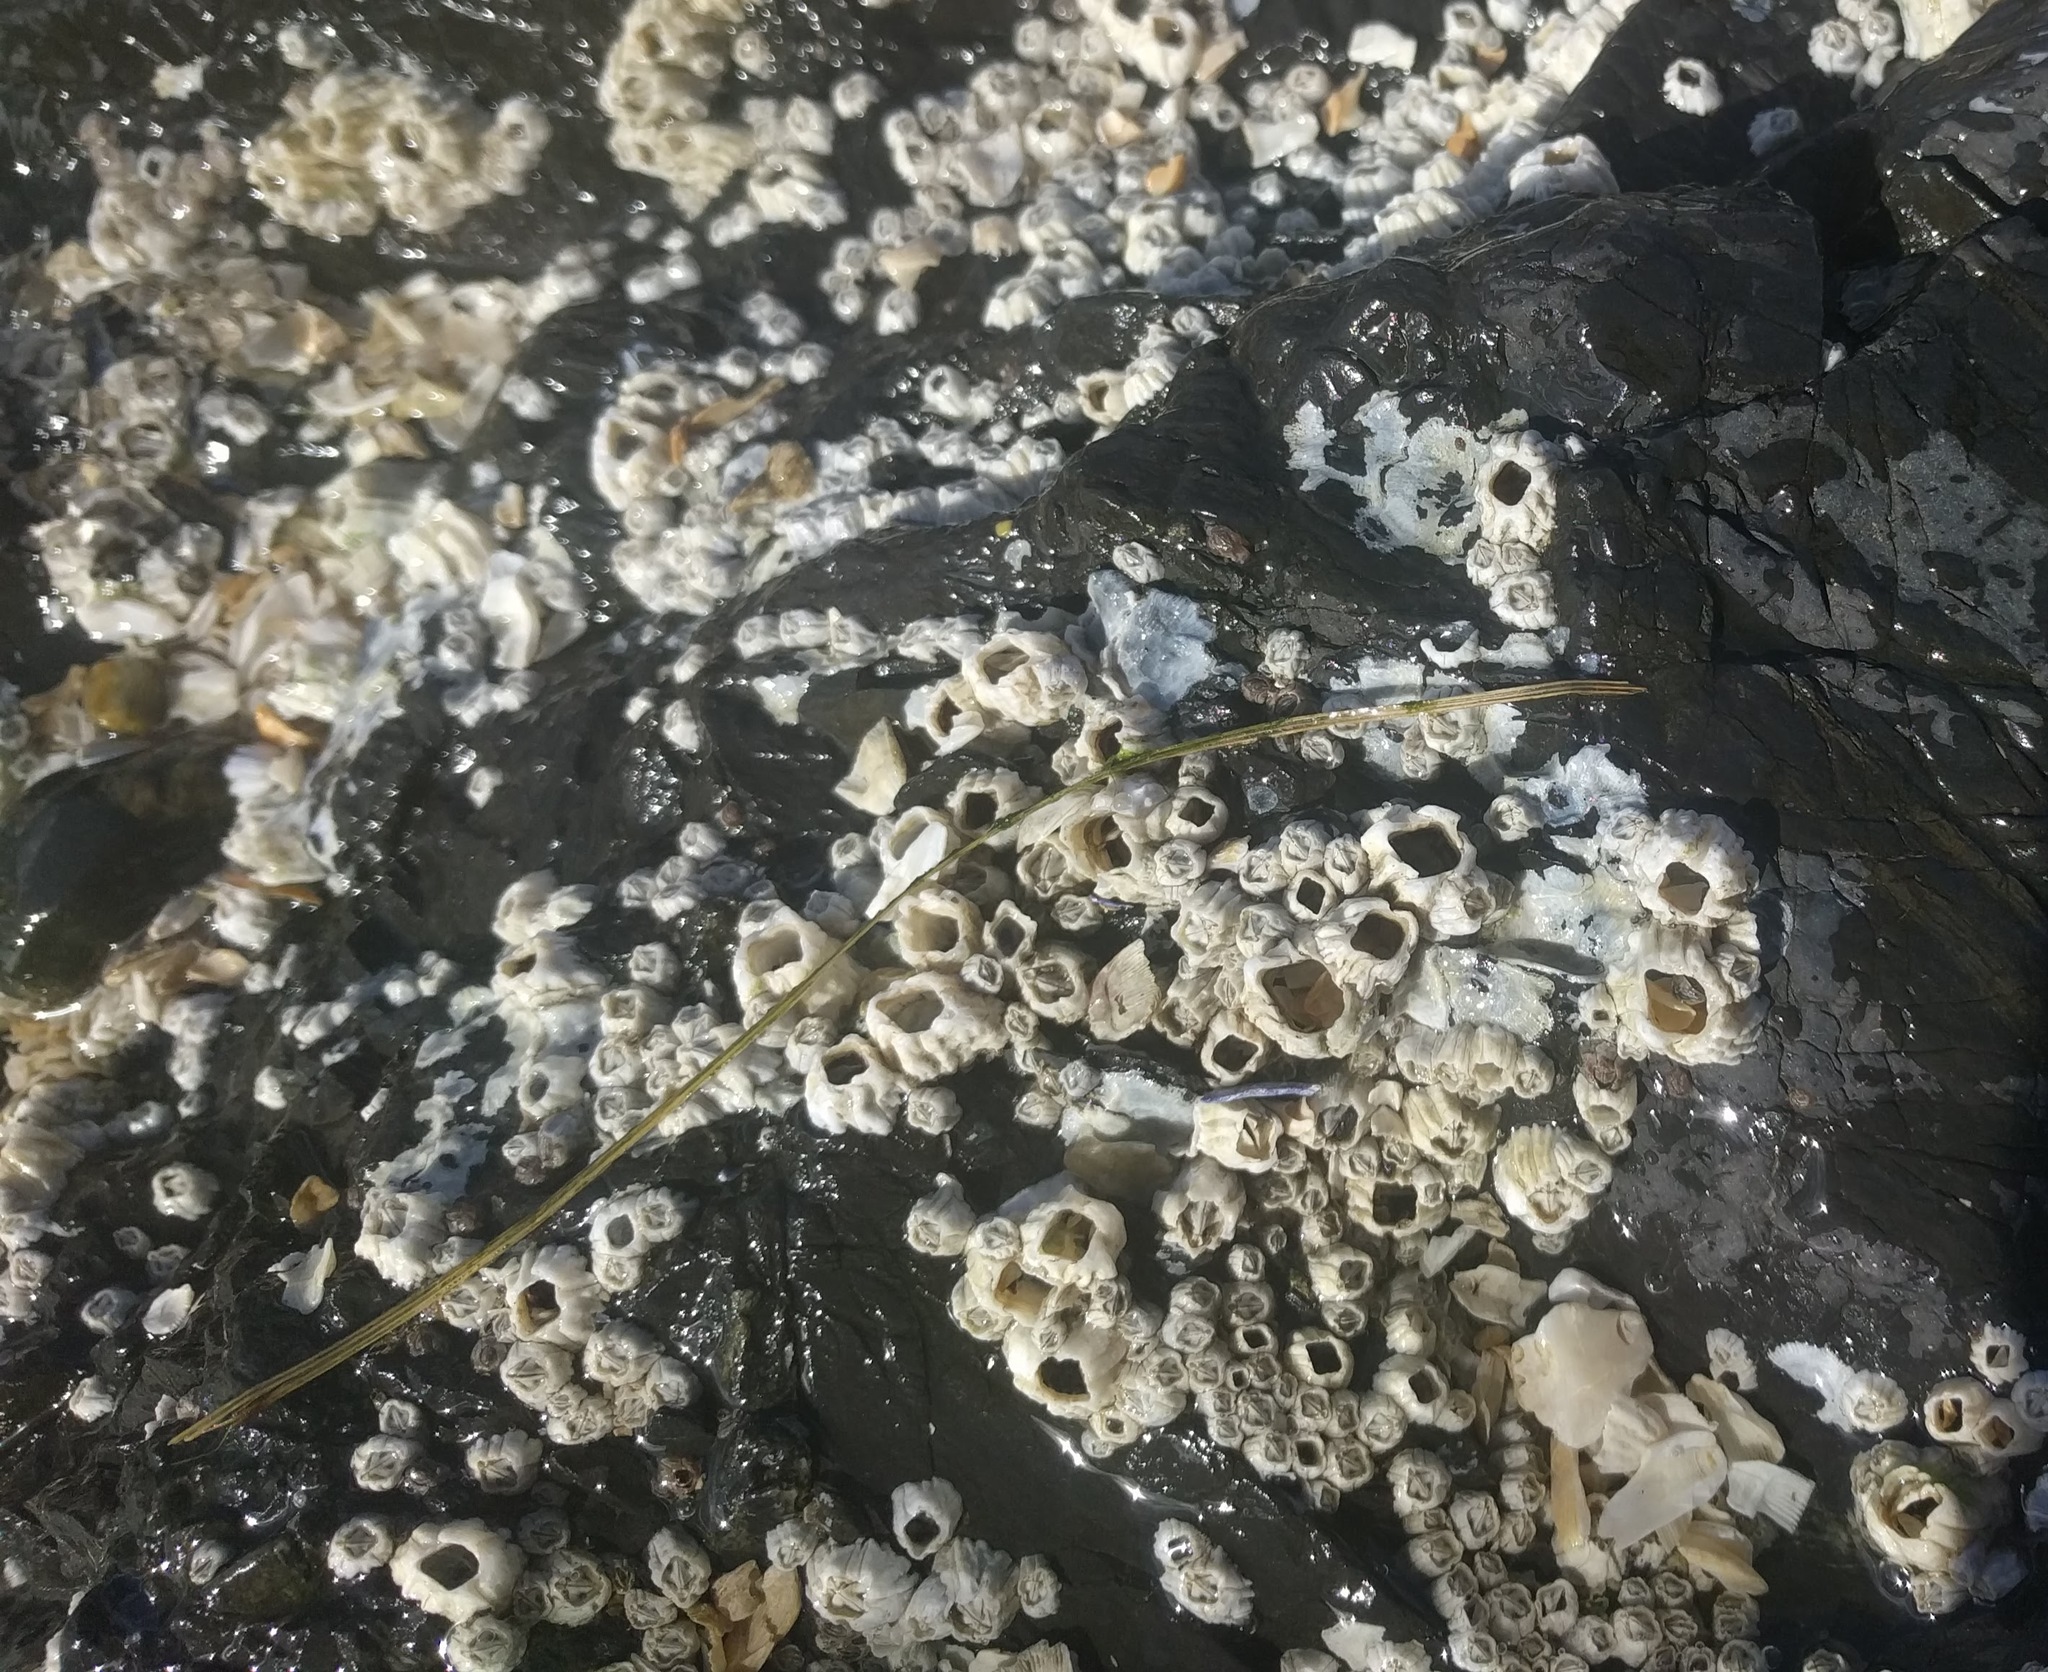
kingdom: Animalia
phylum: Arthropoda
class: Maxillopoda
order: Sessilia
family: Balanidae
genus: Balanus
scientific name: Balanus glandula
